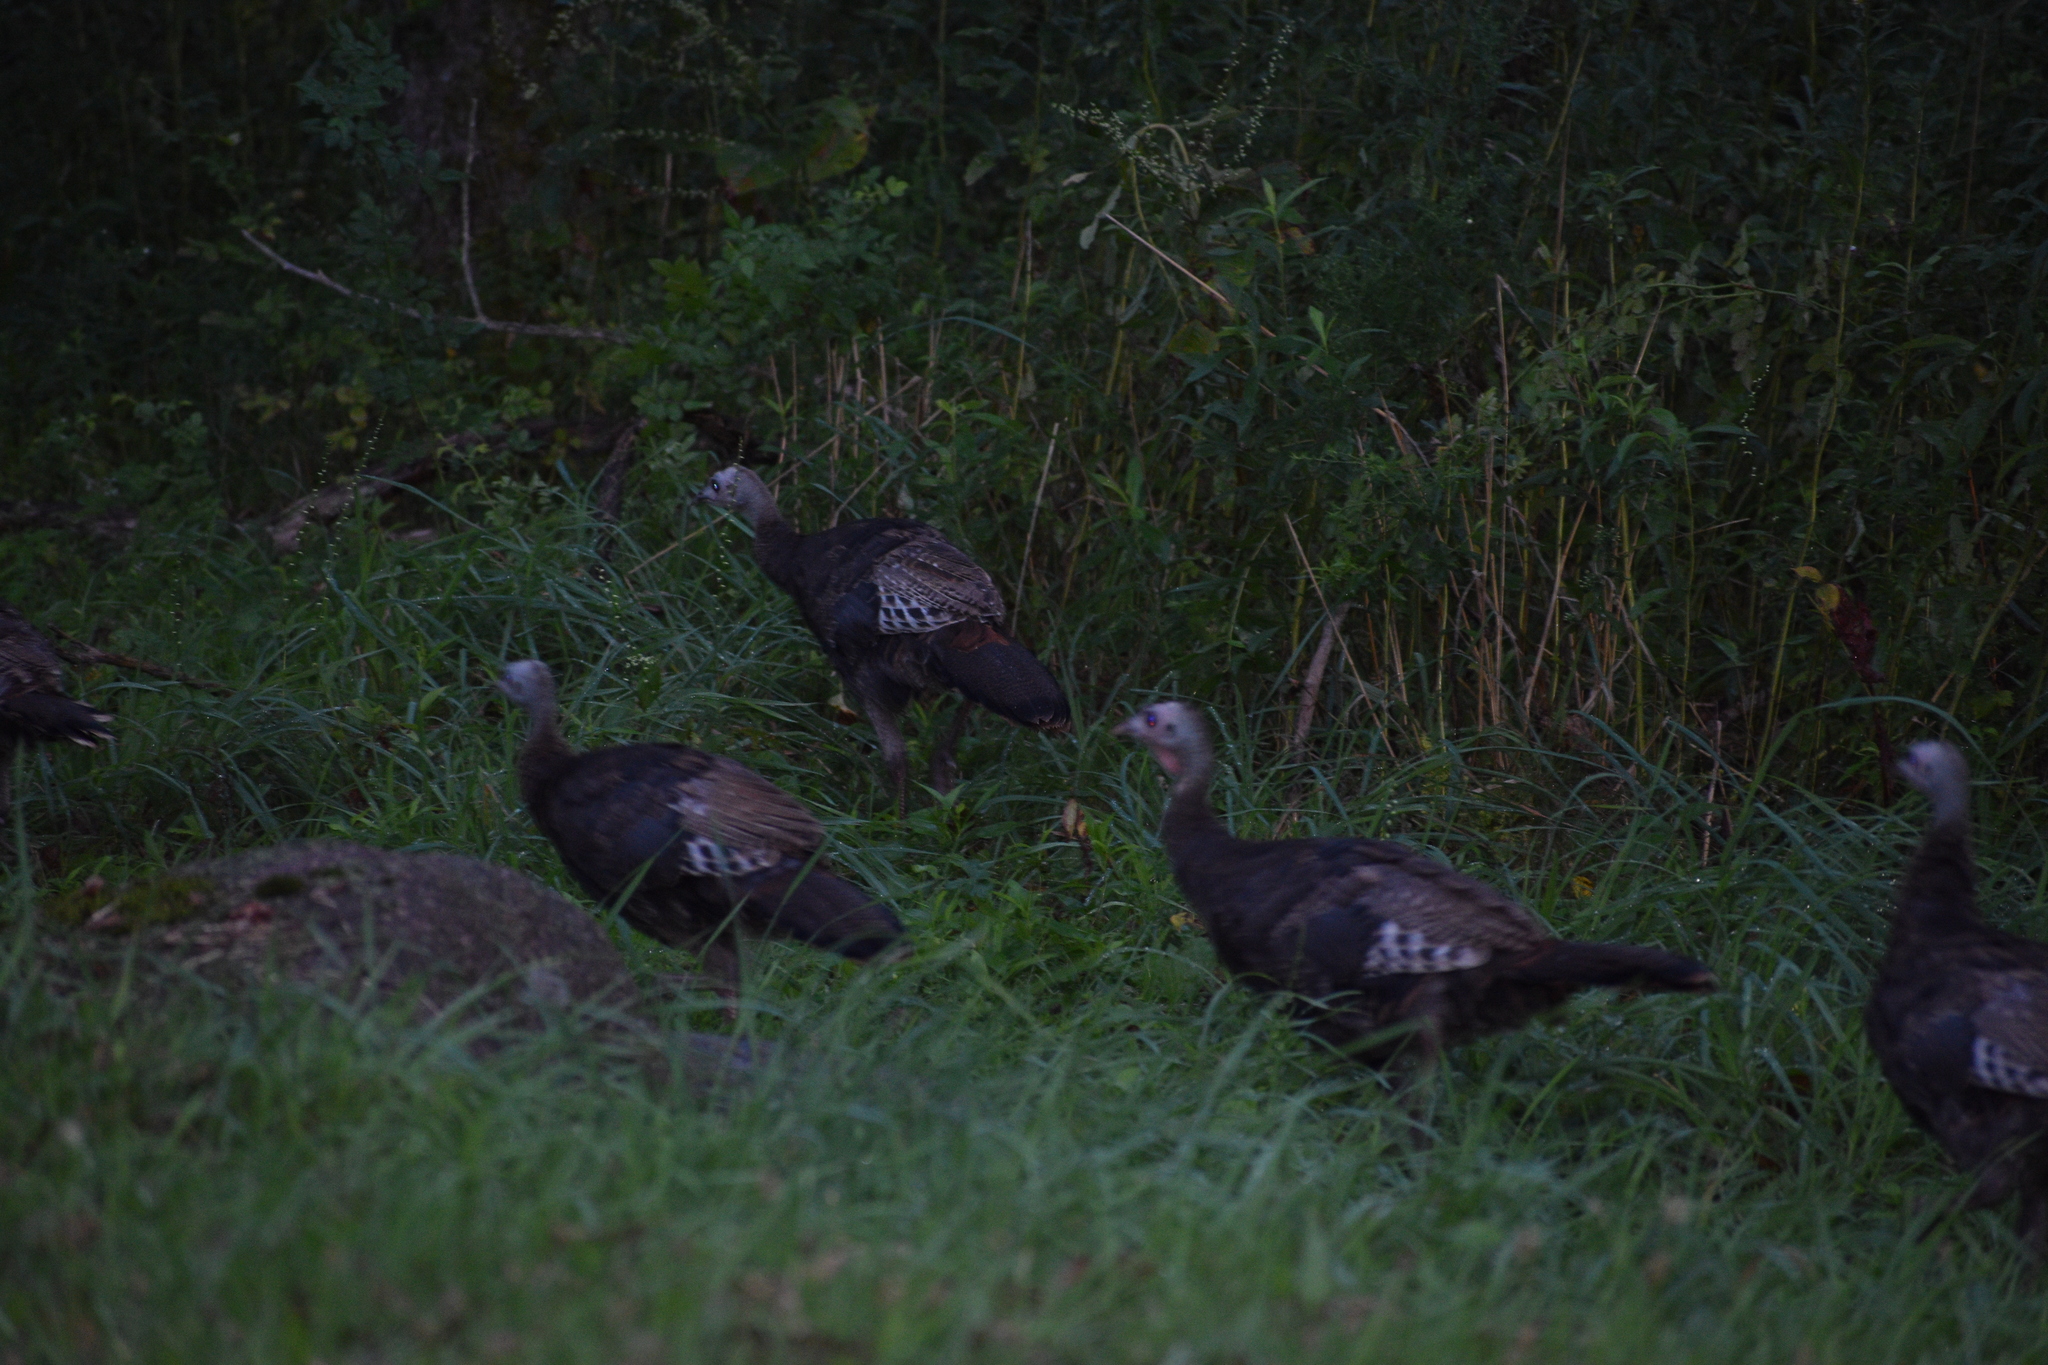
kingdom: Animalia
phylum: Chordata
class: Aves
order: Galliformes
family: Phasianidae
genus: Meleagris
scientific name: Meleagris gallopavo
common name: Wild turkey
